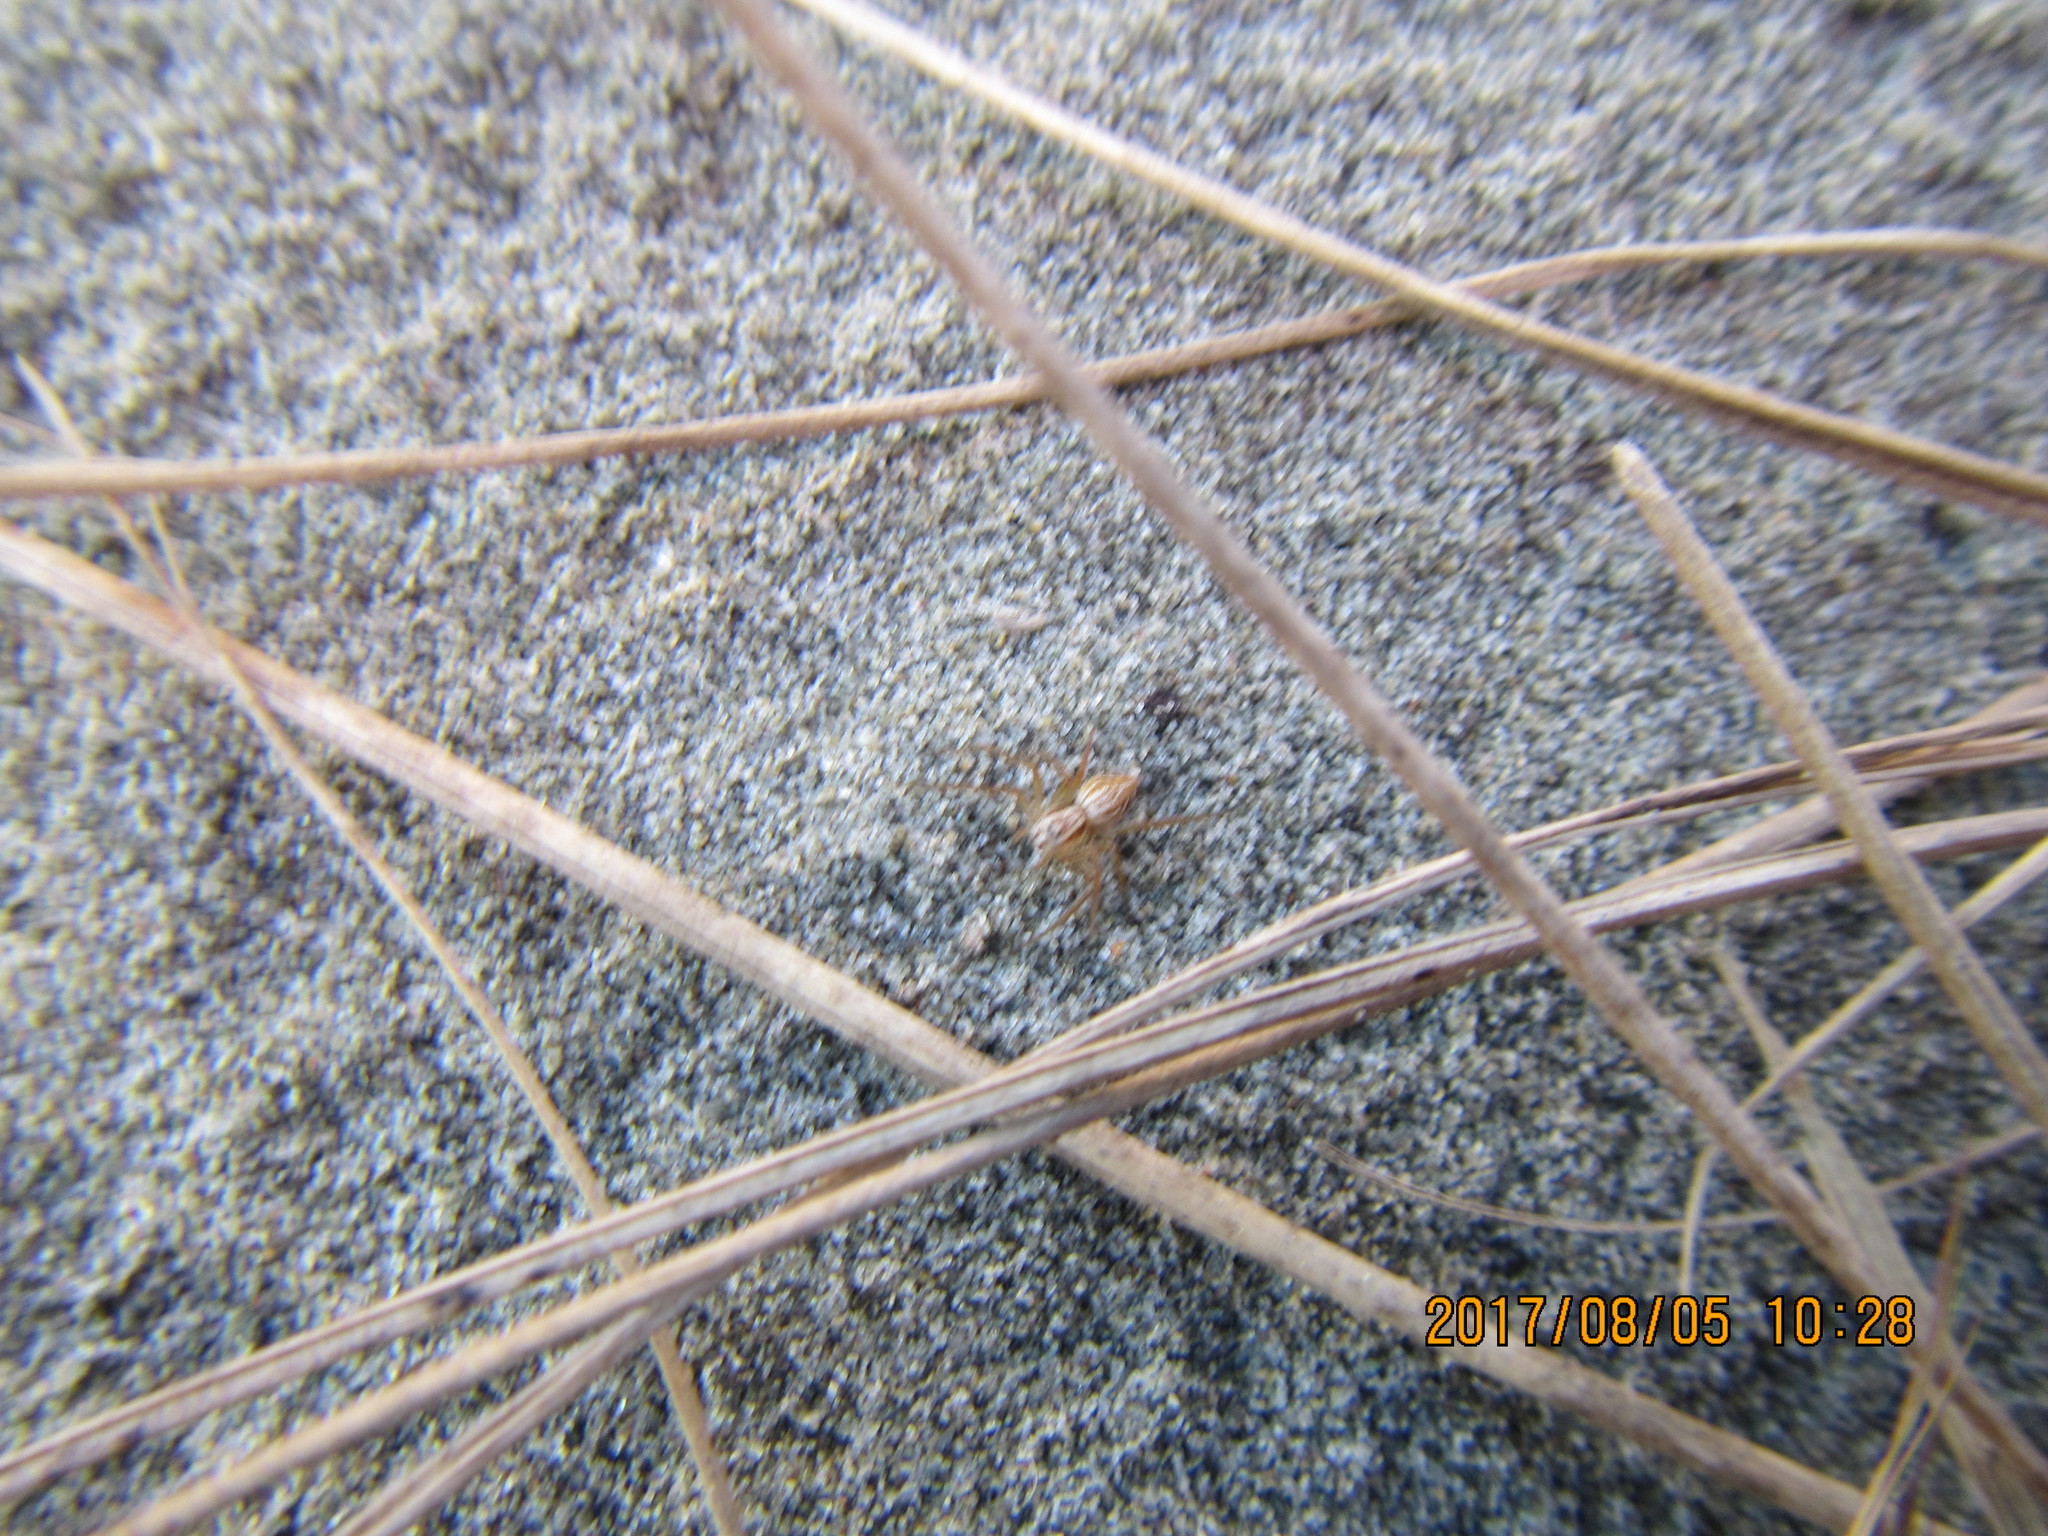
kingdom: Animalia
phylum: Arthropoda
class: Arachnida
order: Araneae
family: Oxyopidae
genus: Oxyopes
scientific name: Oxyopes gracilipes
